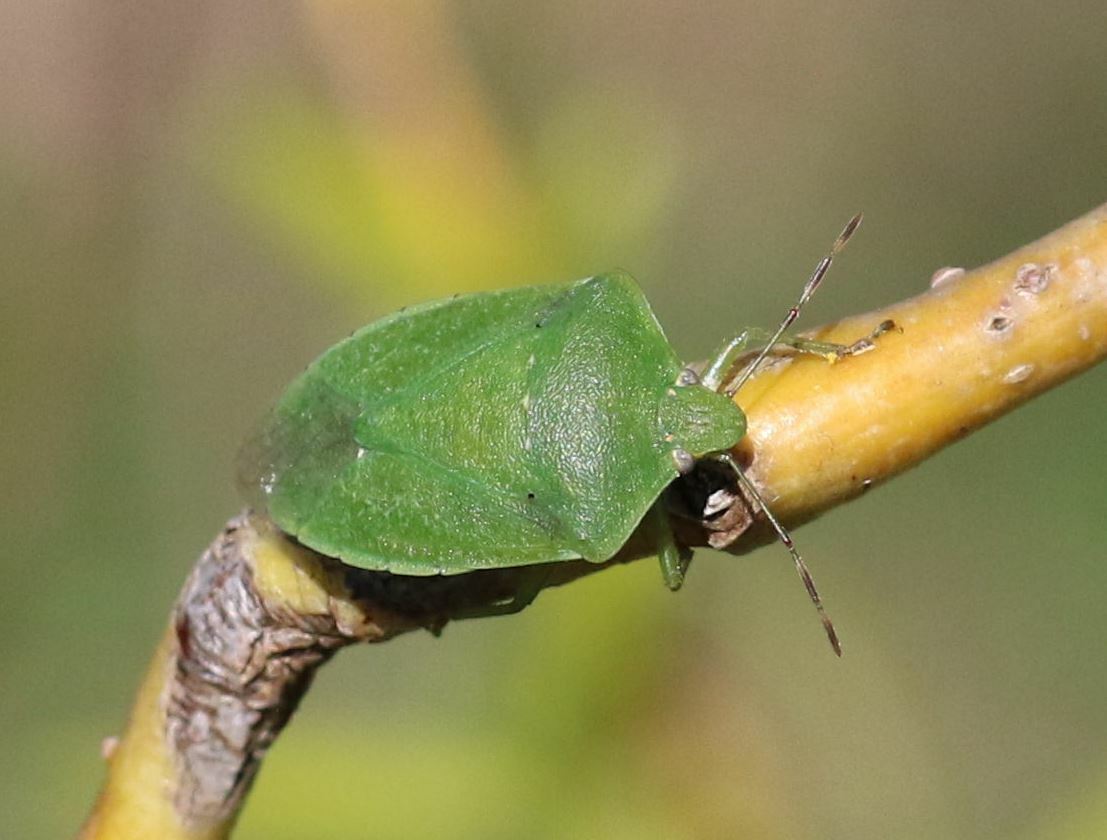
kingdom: Animalia
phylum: Arthropoda
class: Insecta
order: Hemiptera
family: Pentatomidae
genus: Nezara
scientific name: Nezara viridula
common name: Southern green stink bug
